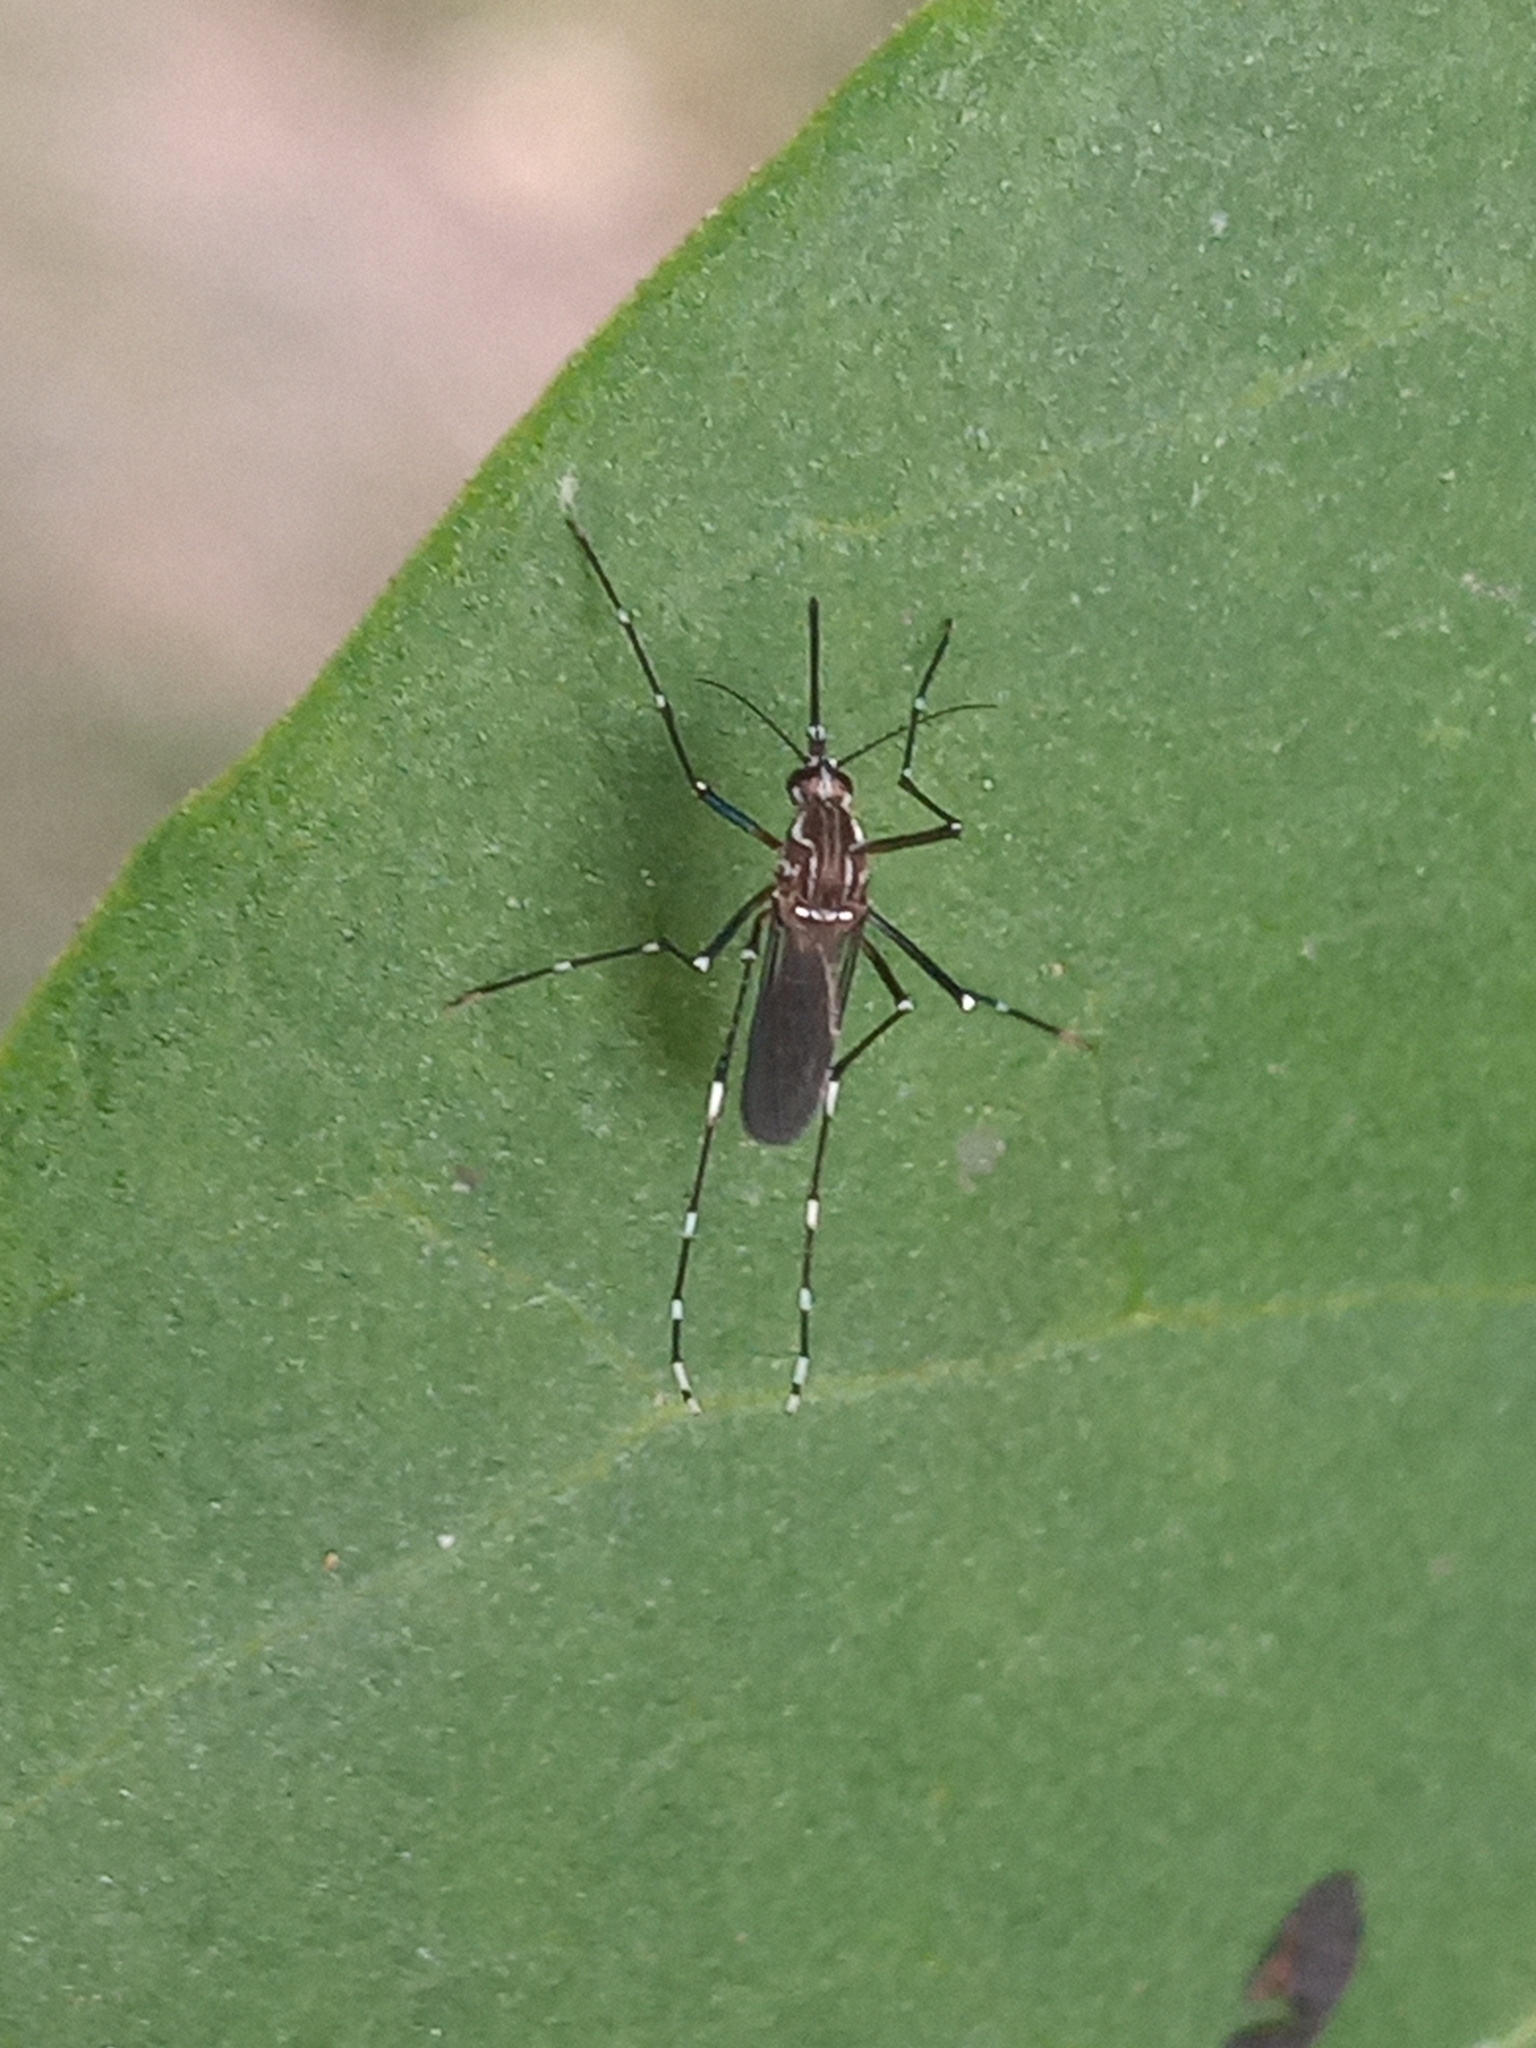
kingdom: Animalia
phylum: Arthropoda
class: Insecta
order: Diptera
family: Culicidae
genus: Aedes
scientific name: Aedes aegypti
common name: Yellow fever mosquito
